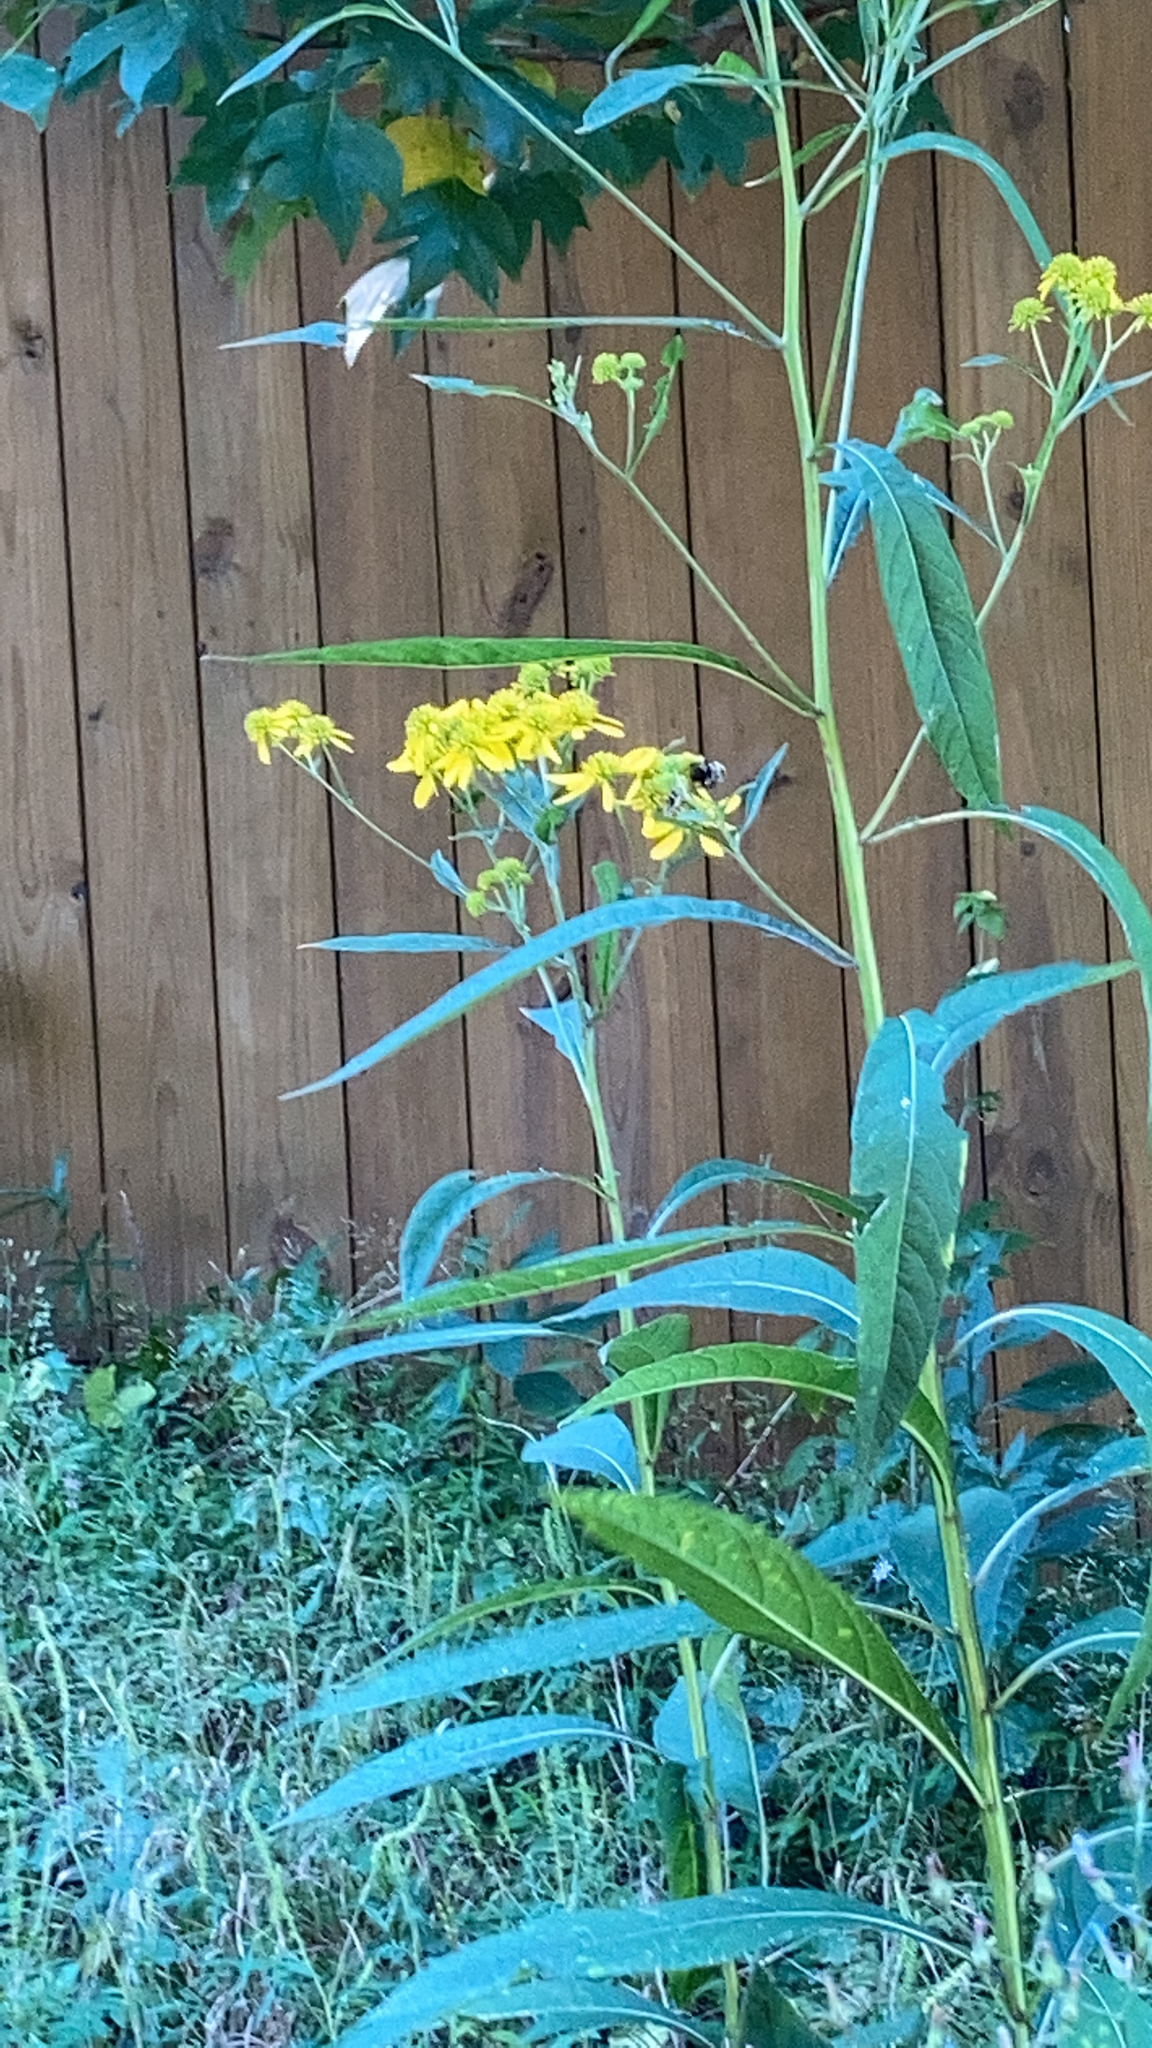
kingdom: Plantae
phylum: Tracheophyta
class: Magnoliopsida
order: Asterales
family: Asteraceae
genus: Verbesina
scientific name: Verbesina alternifolia
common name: Wingstem
